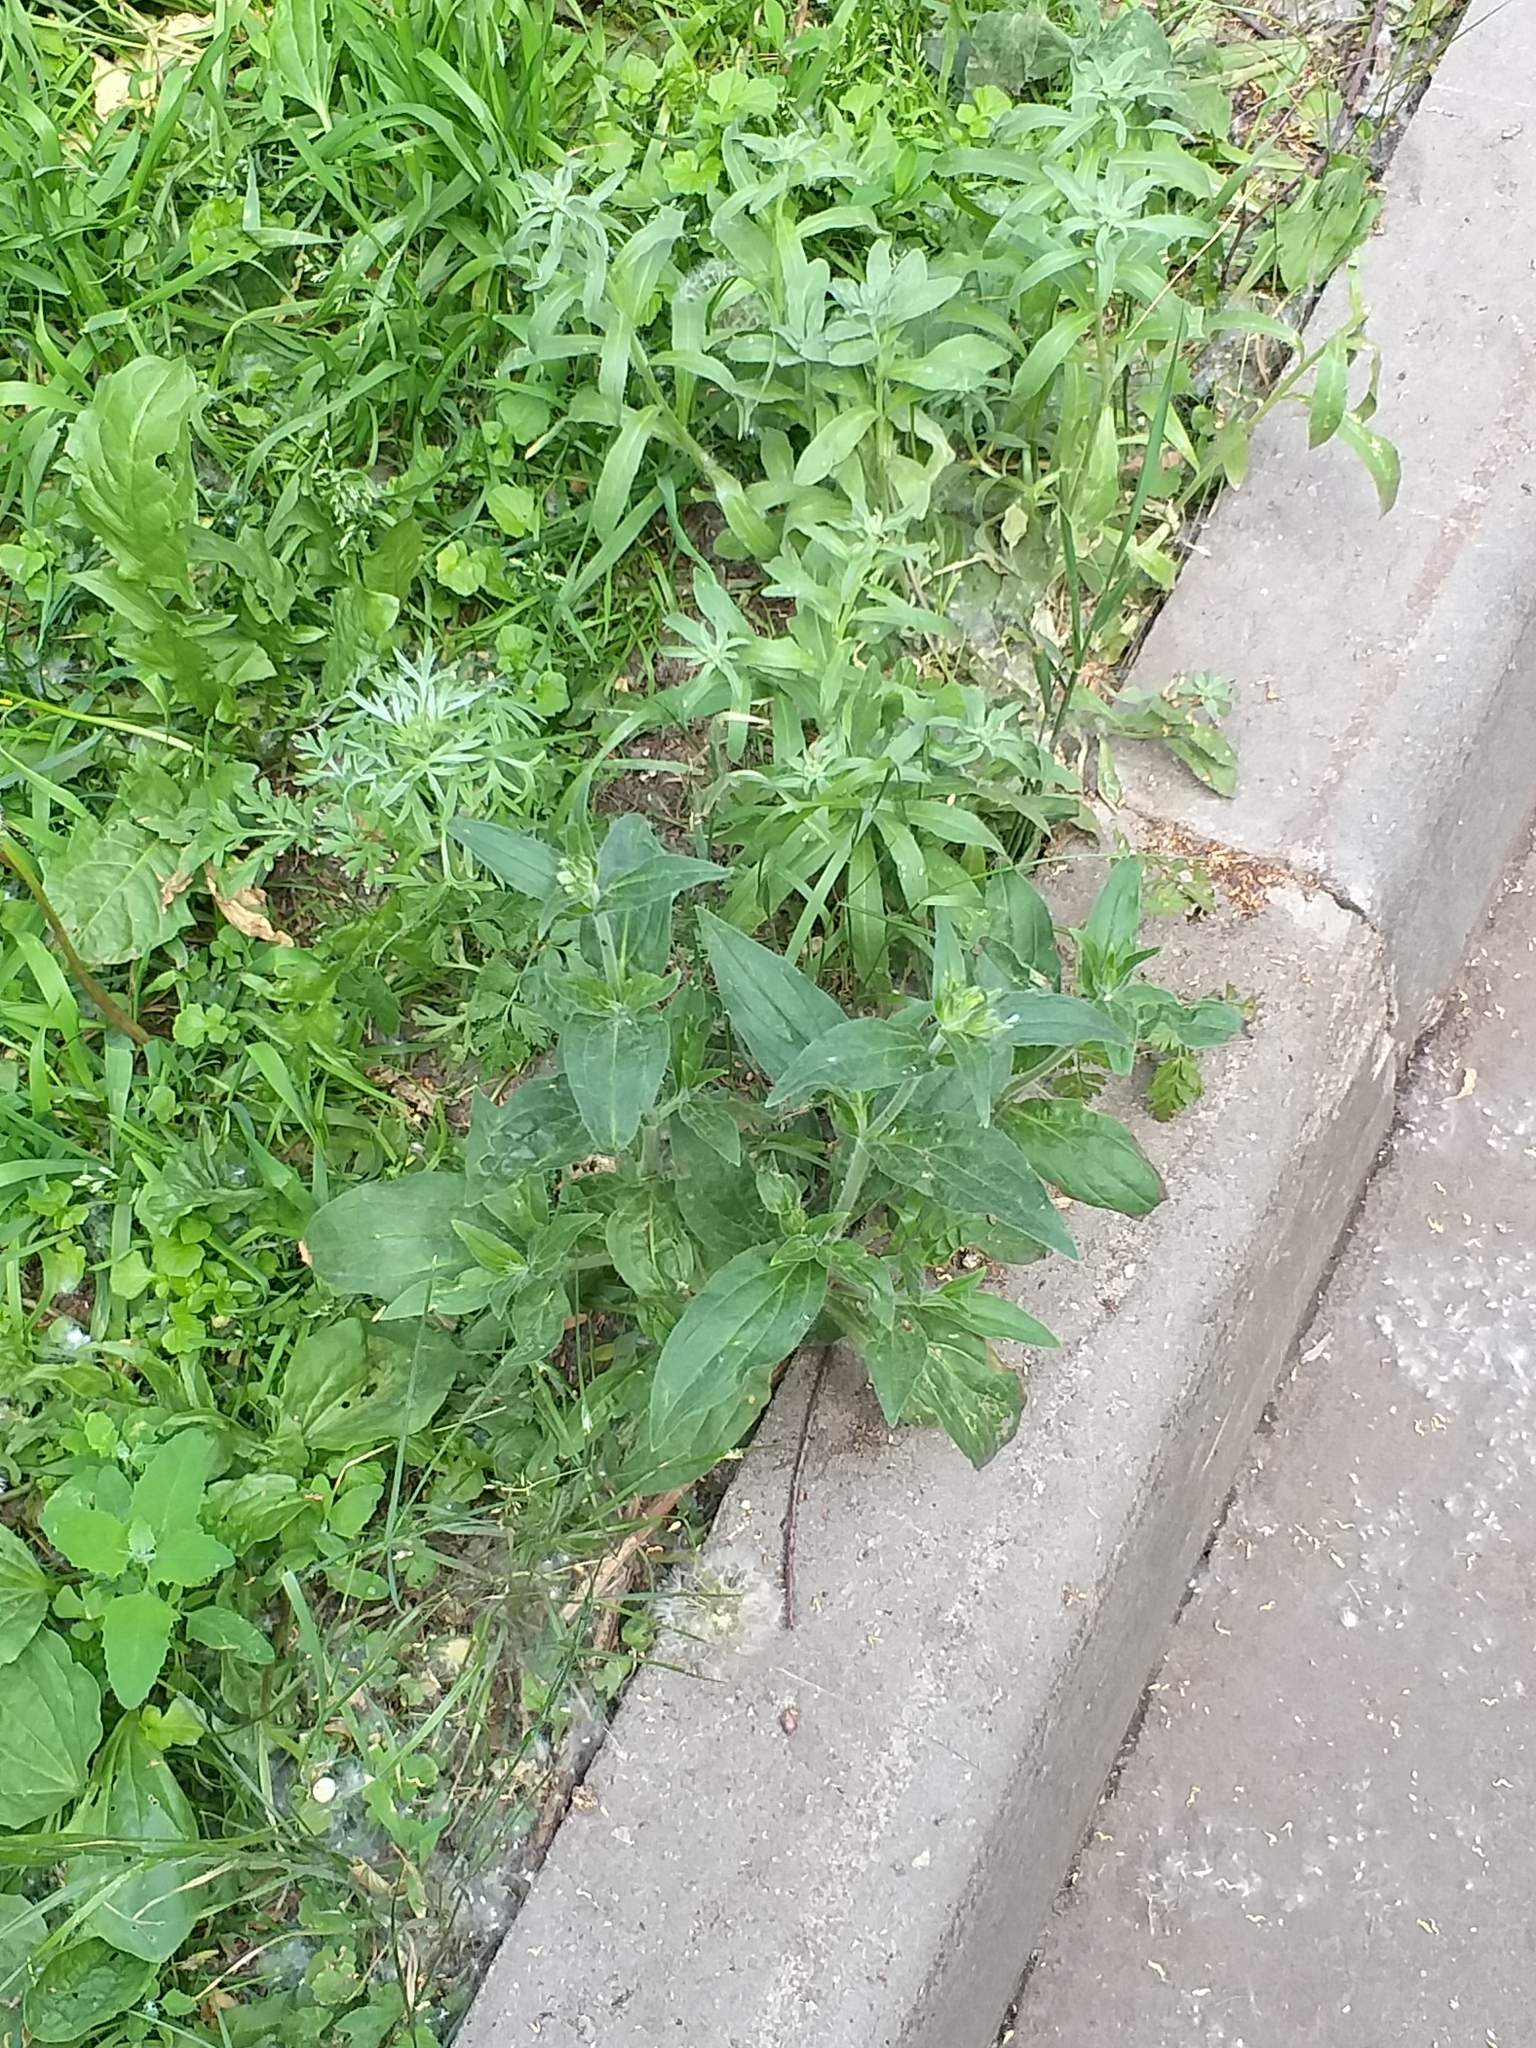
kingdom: Plantae
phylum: Tracheophyta
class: Magnoliopsida
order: Caryophyllales
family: Caryophyllaceae
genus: Silene
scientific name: Silene latifolia
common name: White campion
